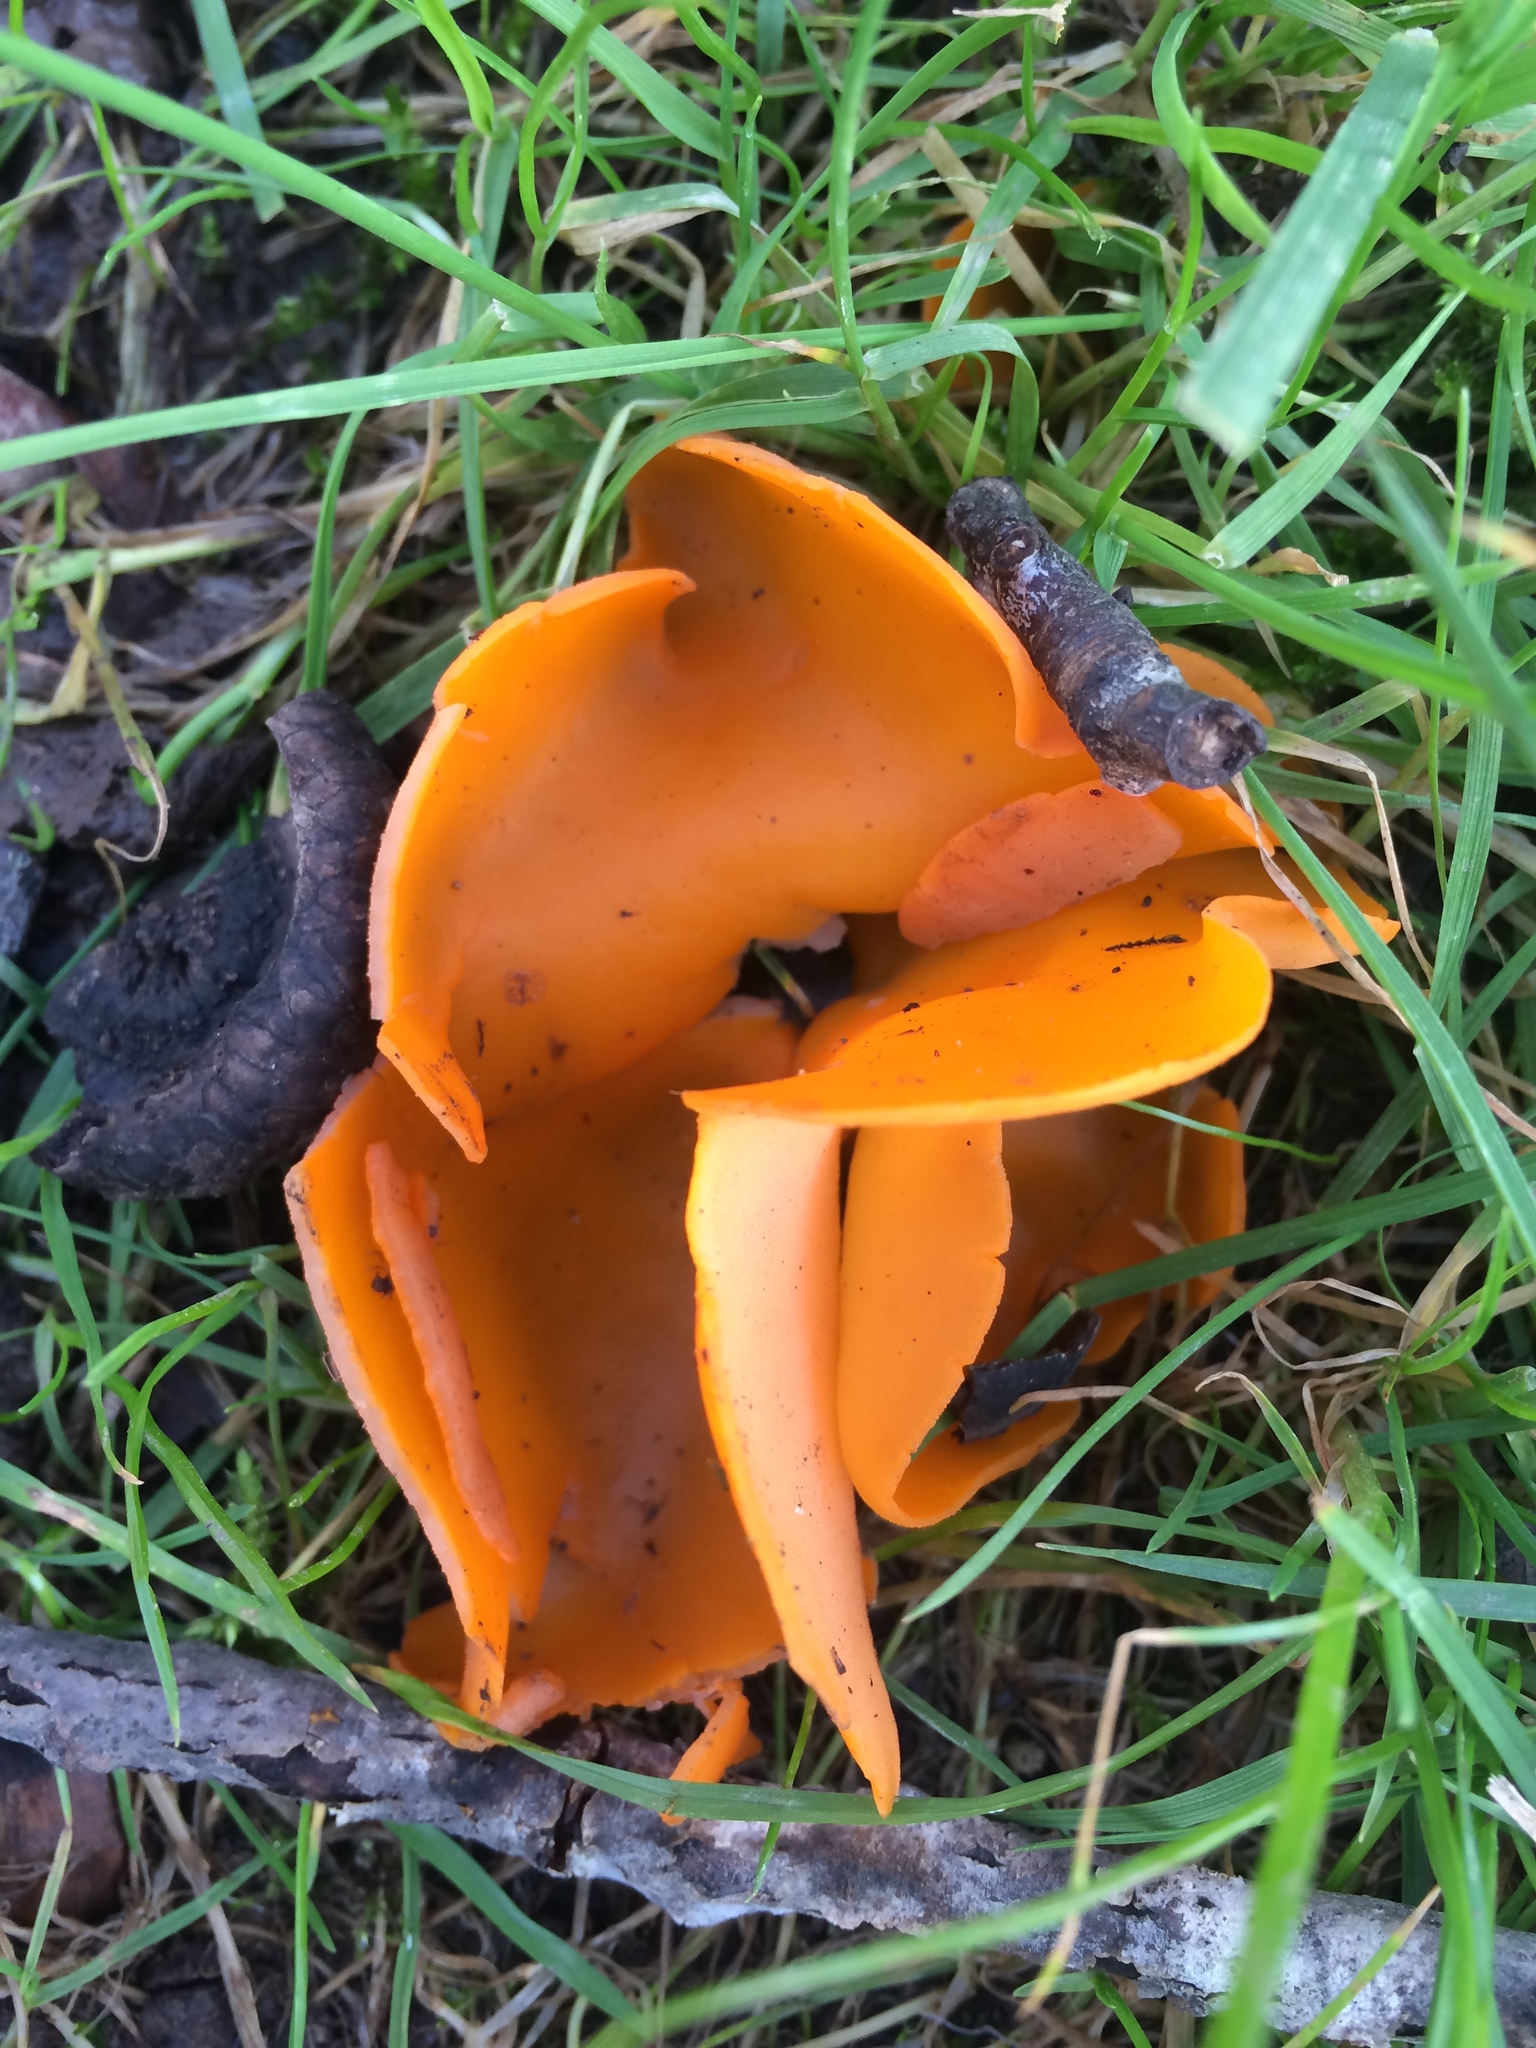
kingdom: Fungi
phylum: Ascomycota
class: Pezizomycetes
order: Pezizales
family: Pyronemataceae
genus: Aleuria
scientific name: Aleuria aurantia
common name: Orange peel fungus
